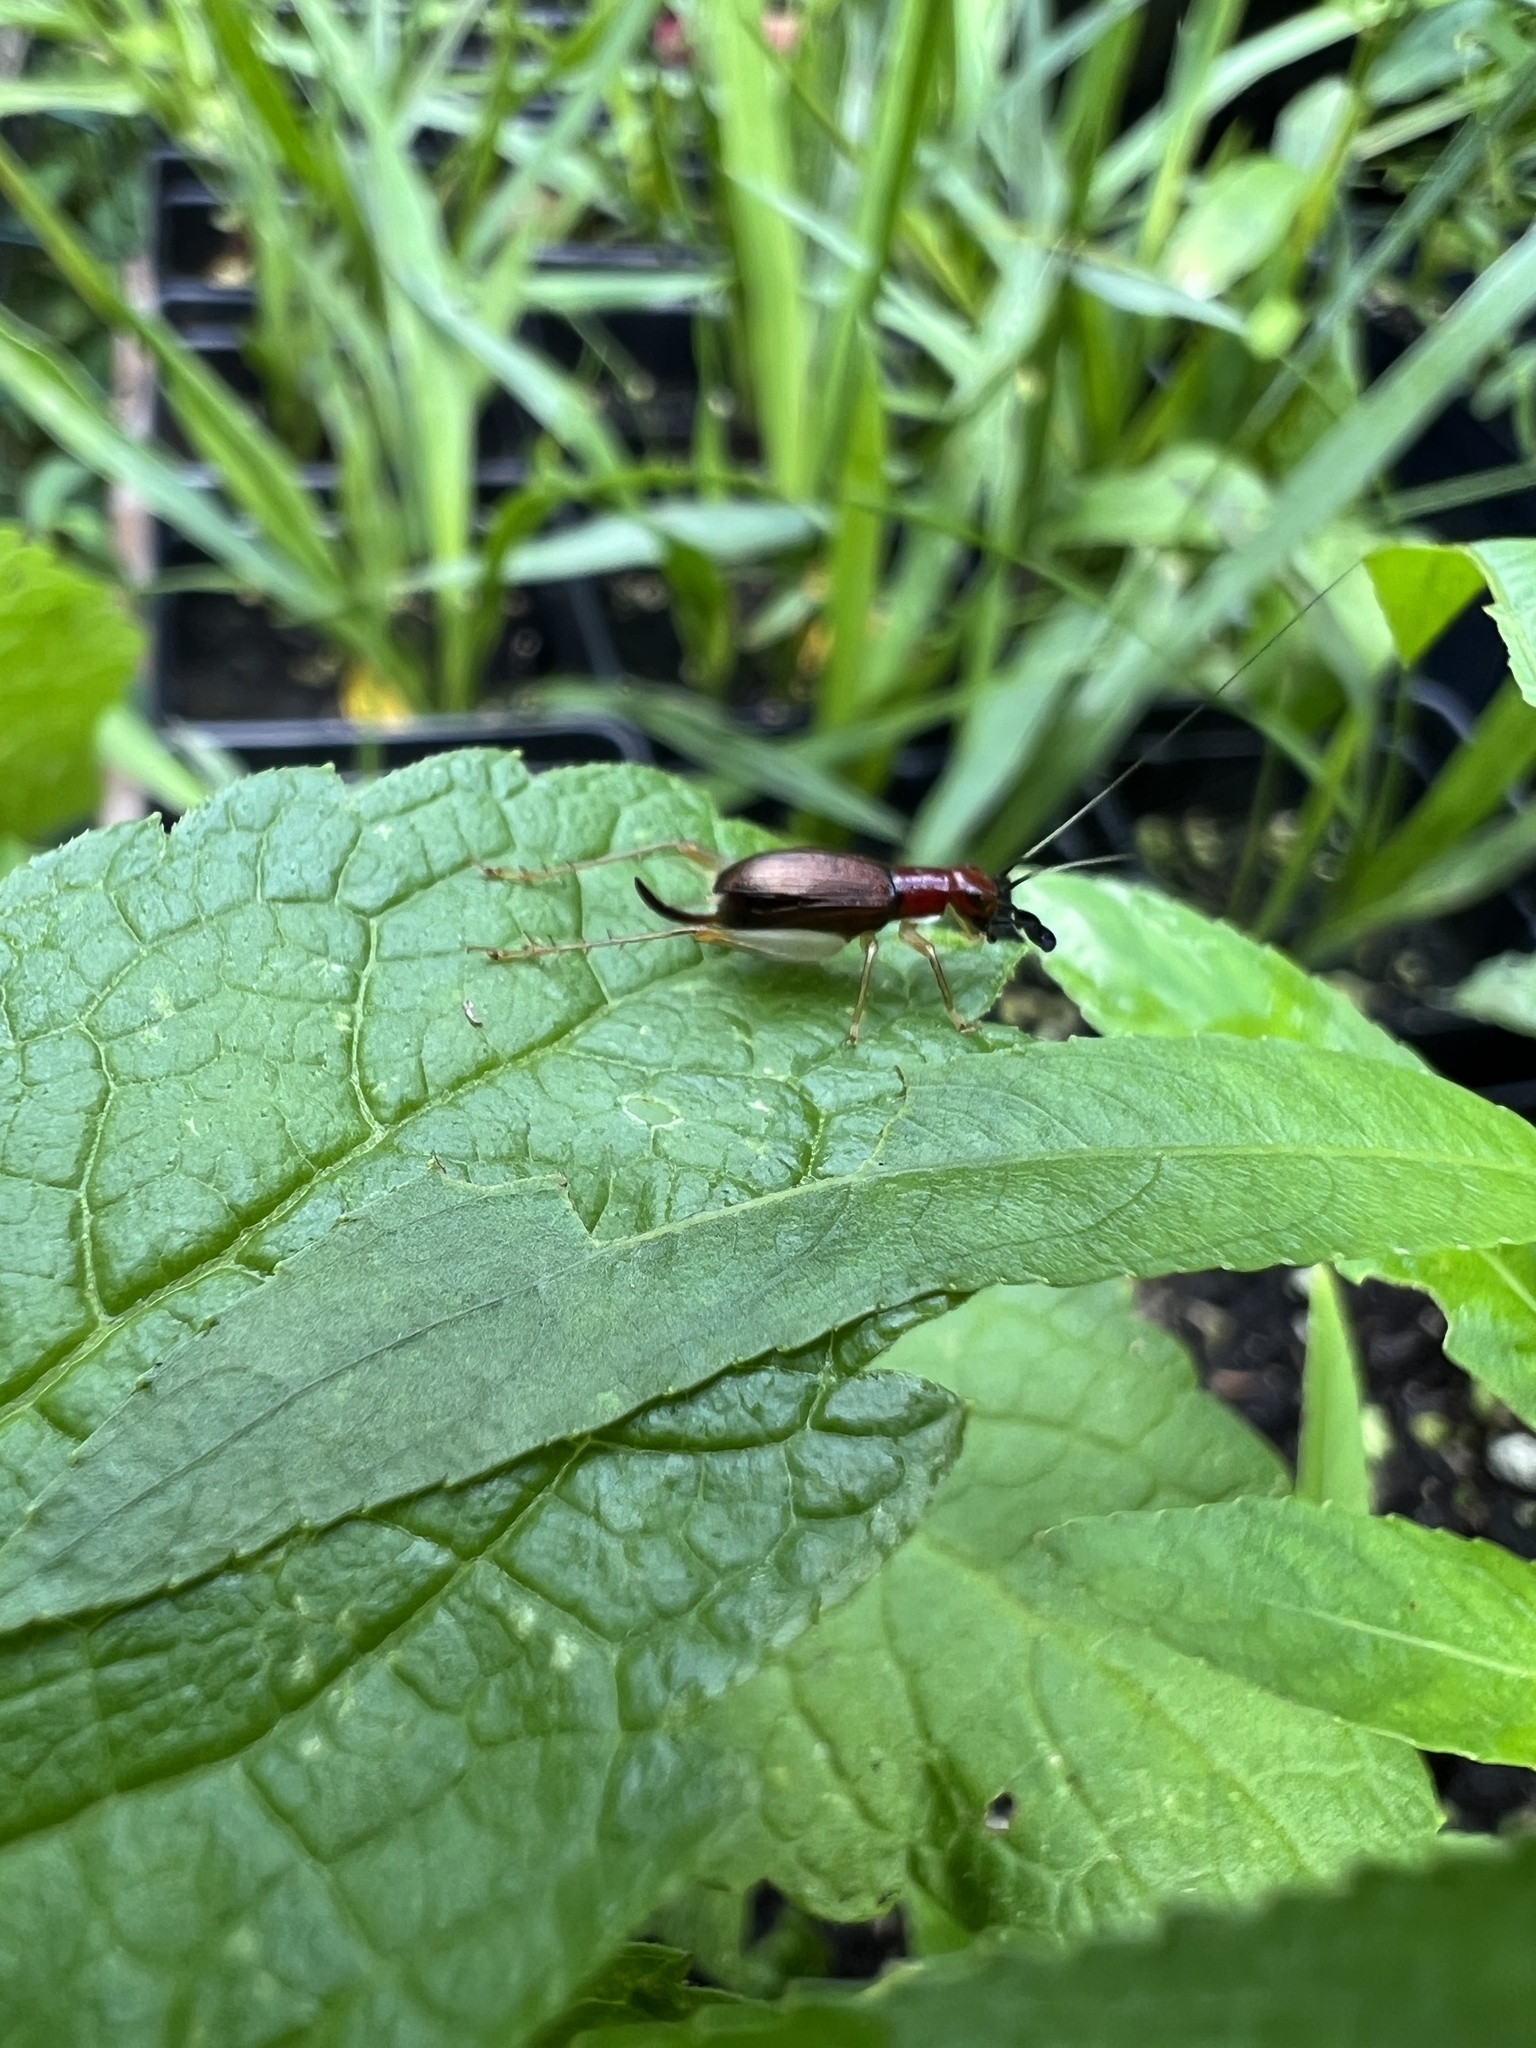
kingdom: Animalia
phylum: Arthropoda
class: Insecta
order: Orthoptera
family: Trigonidiidae
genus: Phyllopalpus
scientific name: Phyllopalpus pulchellus
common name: Handsome trig
